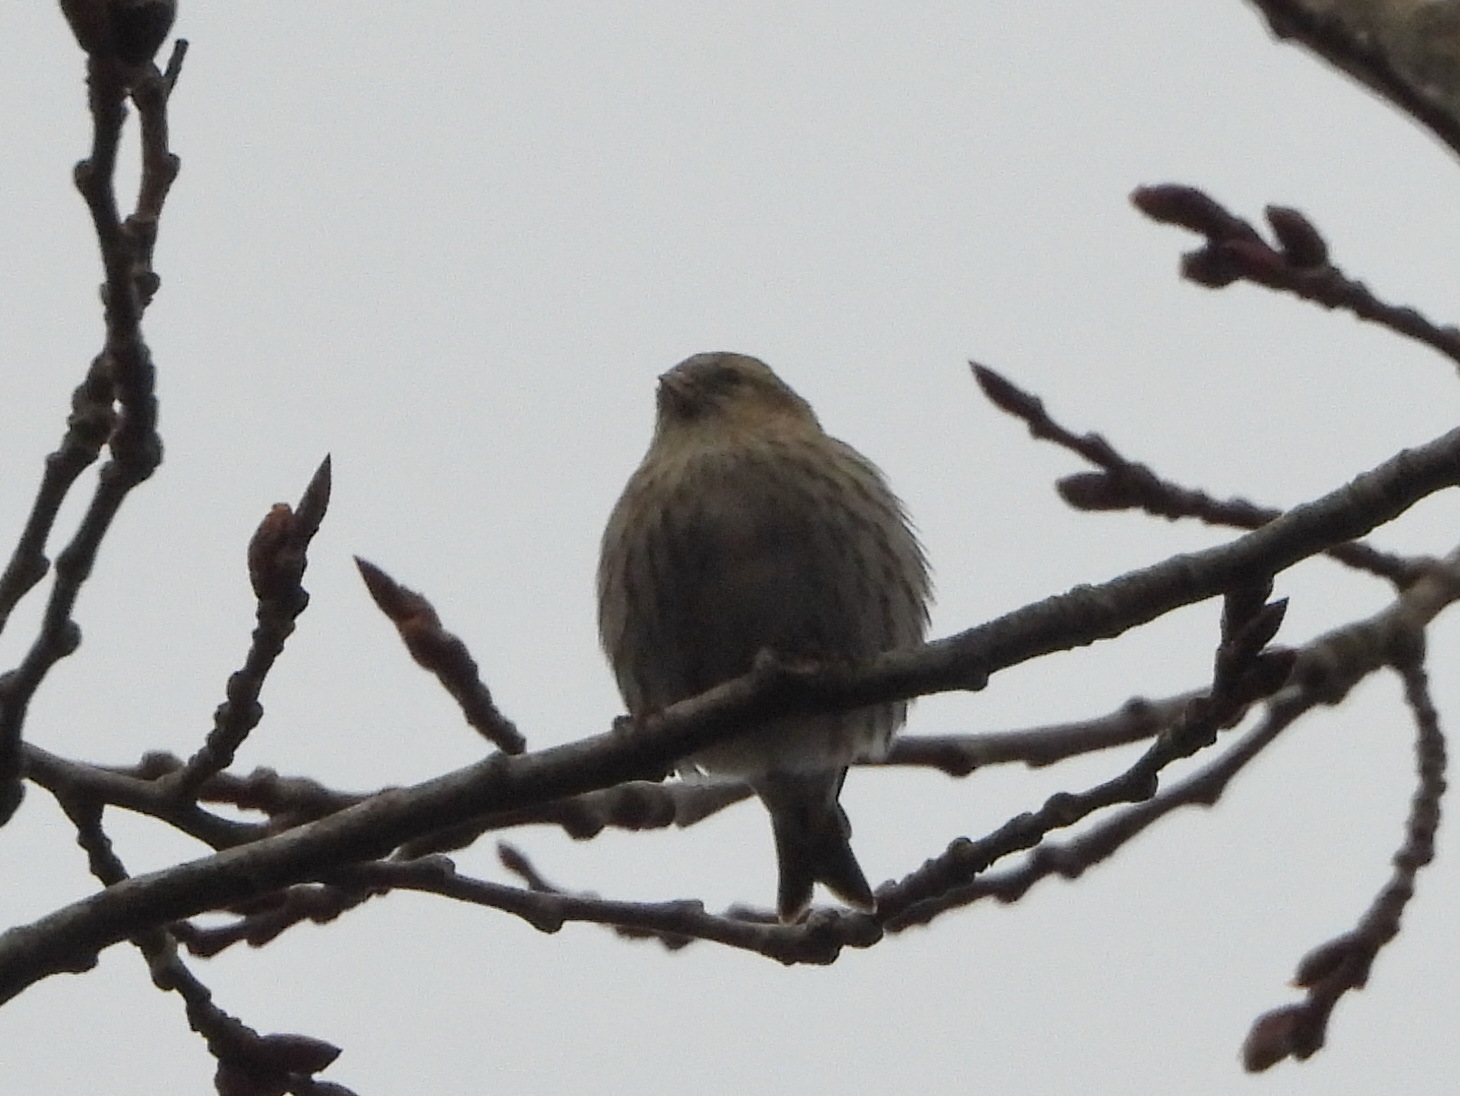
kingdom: Animalia
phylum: Chordata
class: Aves
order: Passeriformes
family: Fringillidae
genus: Spinus
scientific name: Spinus spinus
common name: Eurasian siskin
